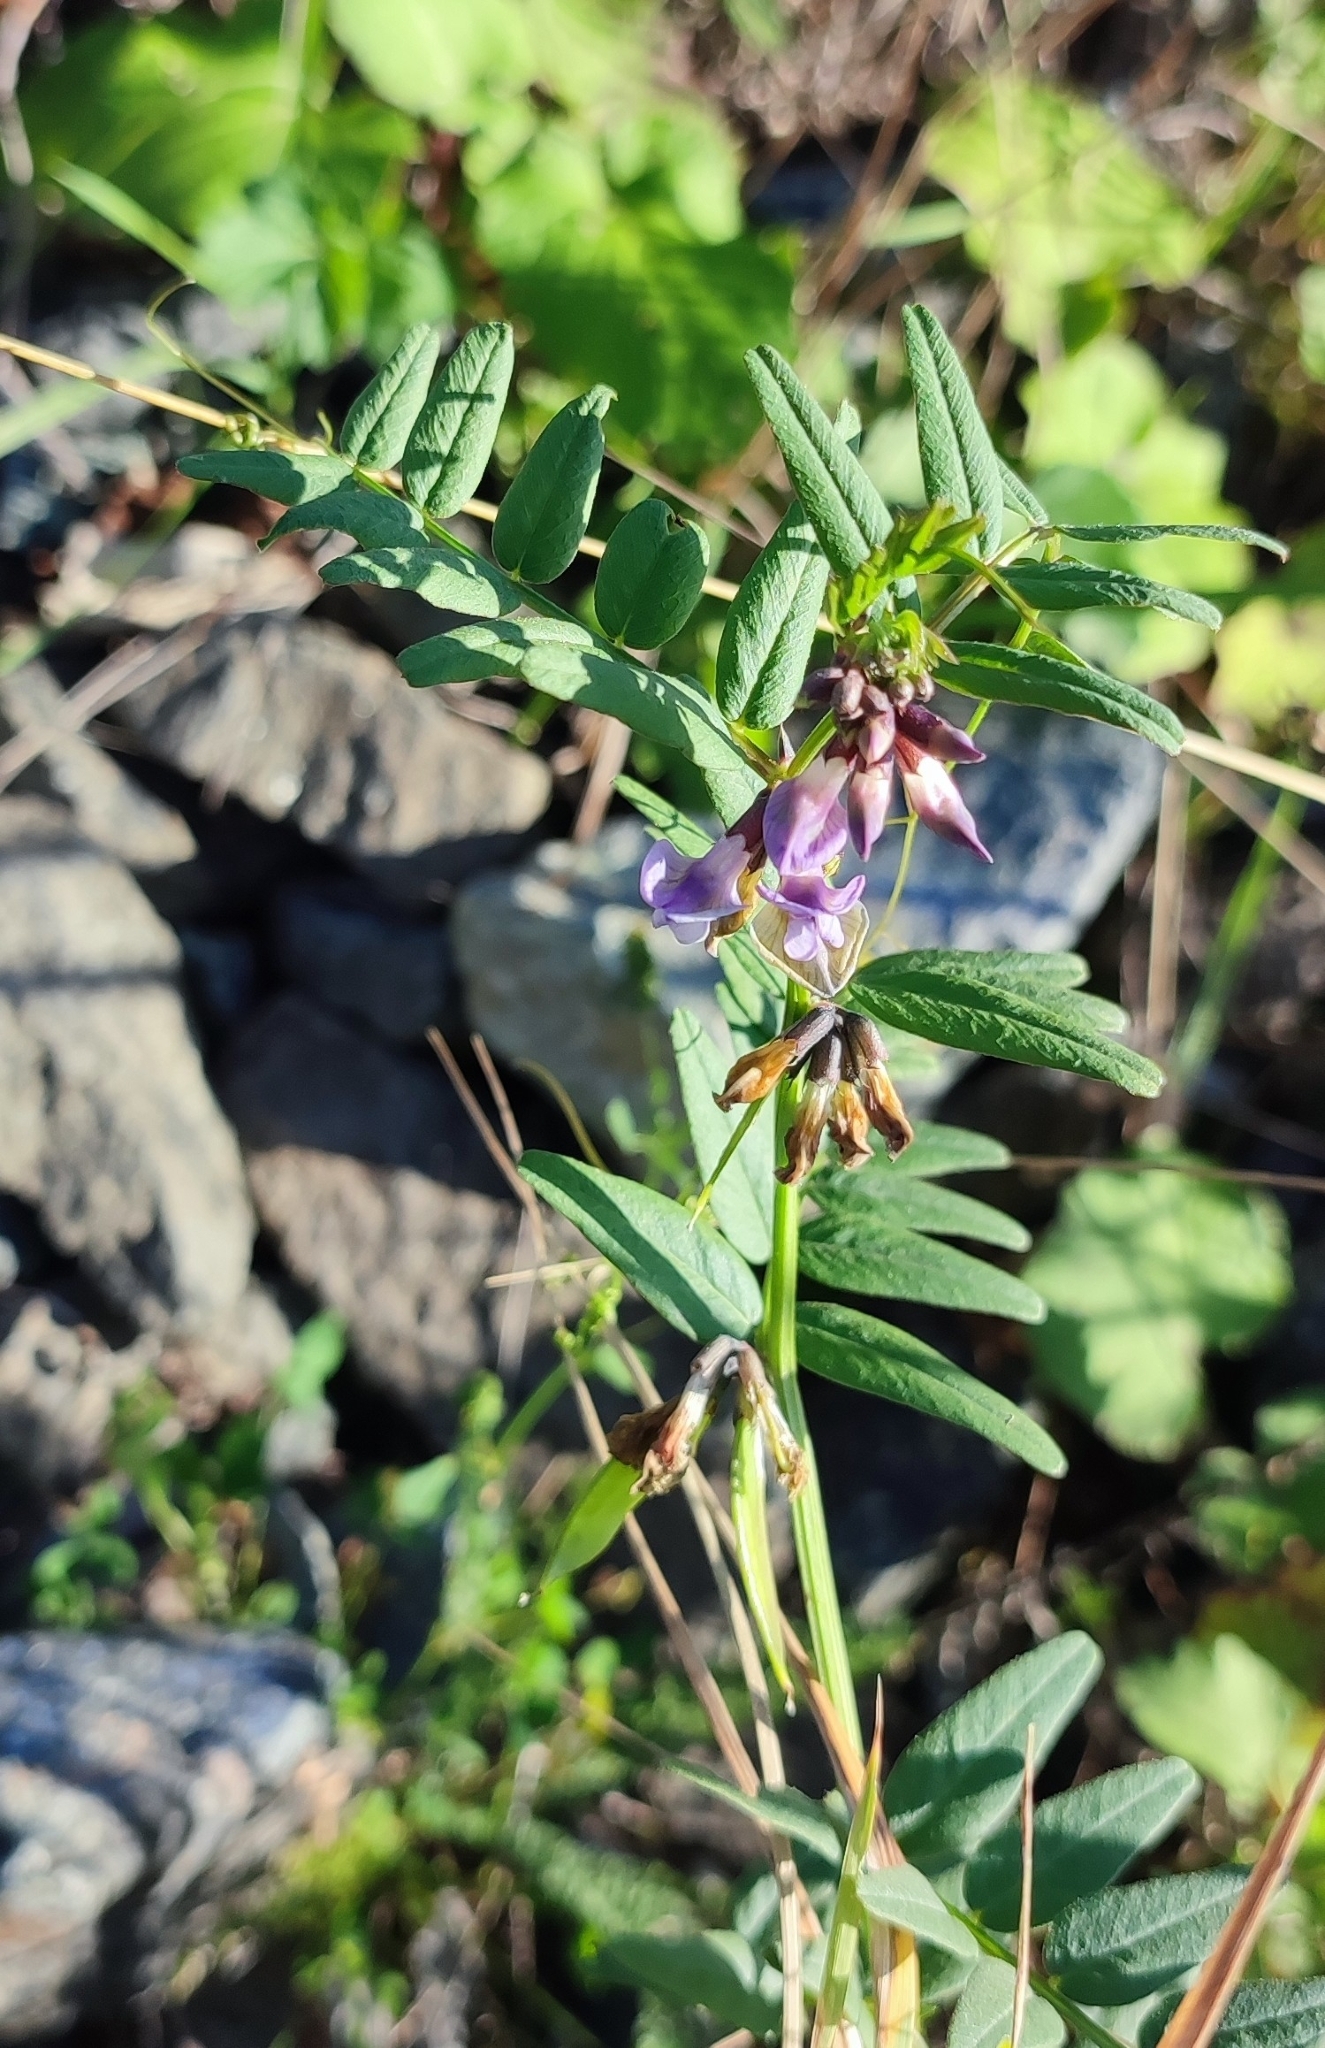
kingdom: Plantae
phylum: Tracheophyta
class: Magnoliopsida
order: Fabales
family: Fabaceae
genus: Vicia
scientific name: Vicia sepium
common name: Bush vetch
